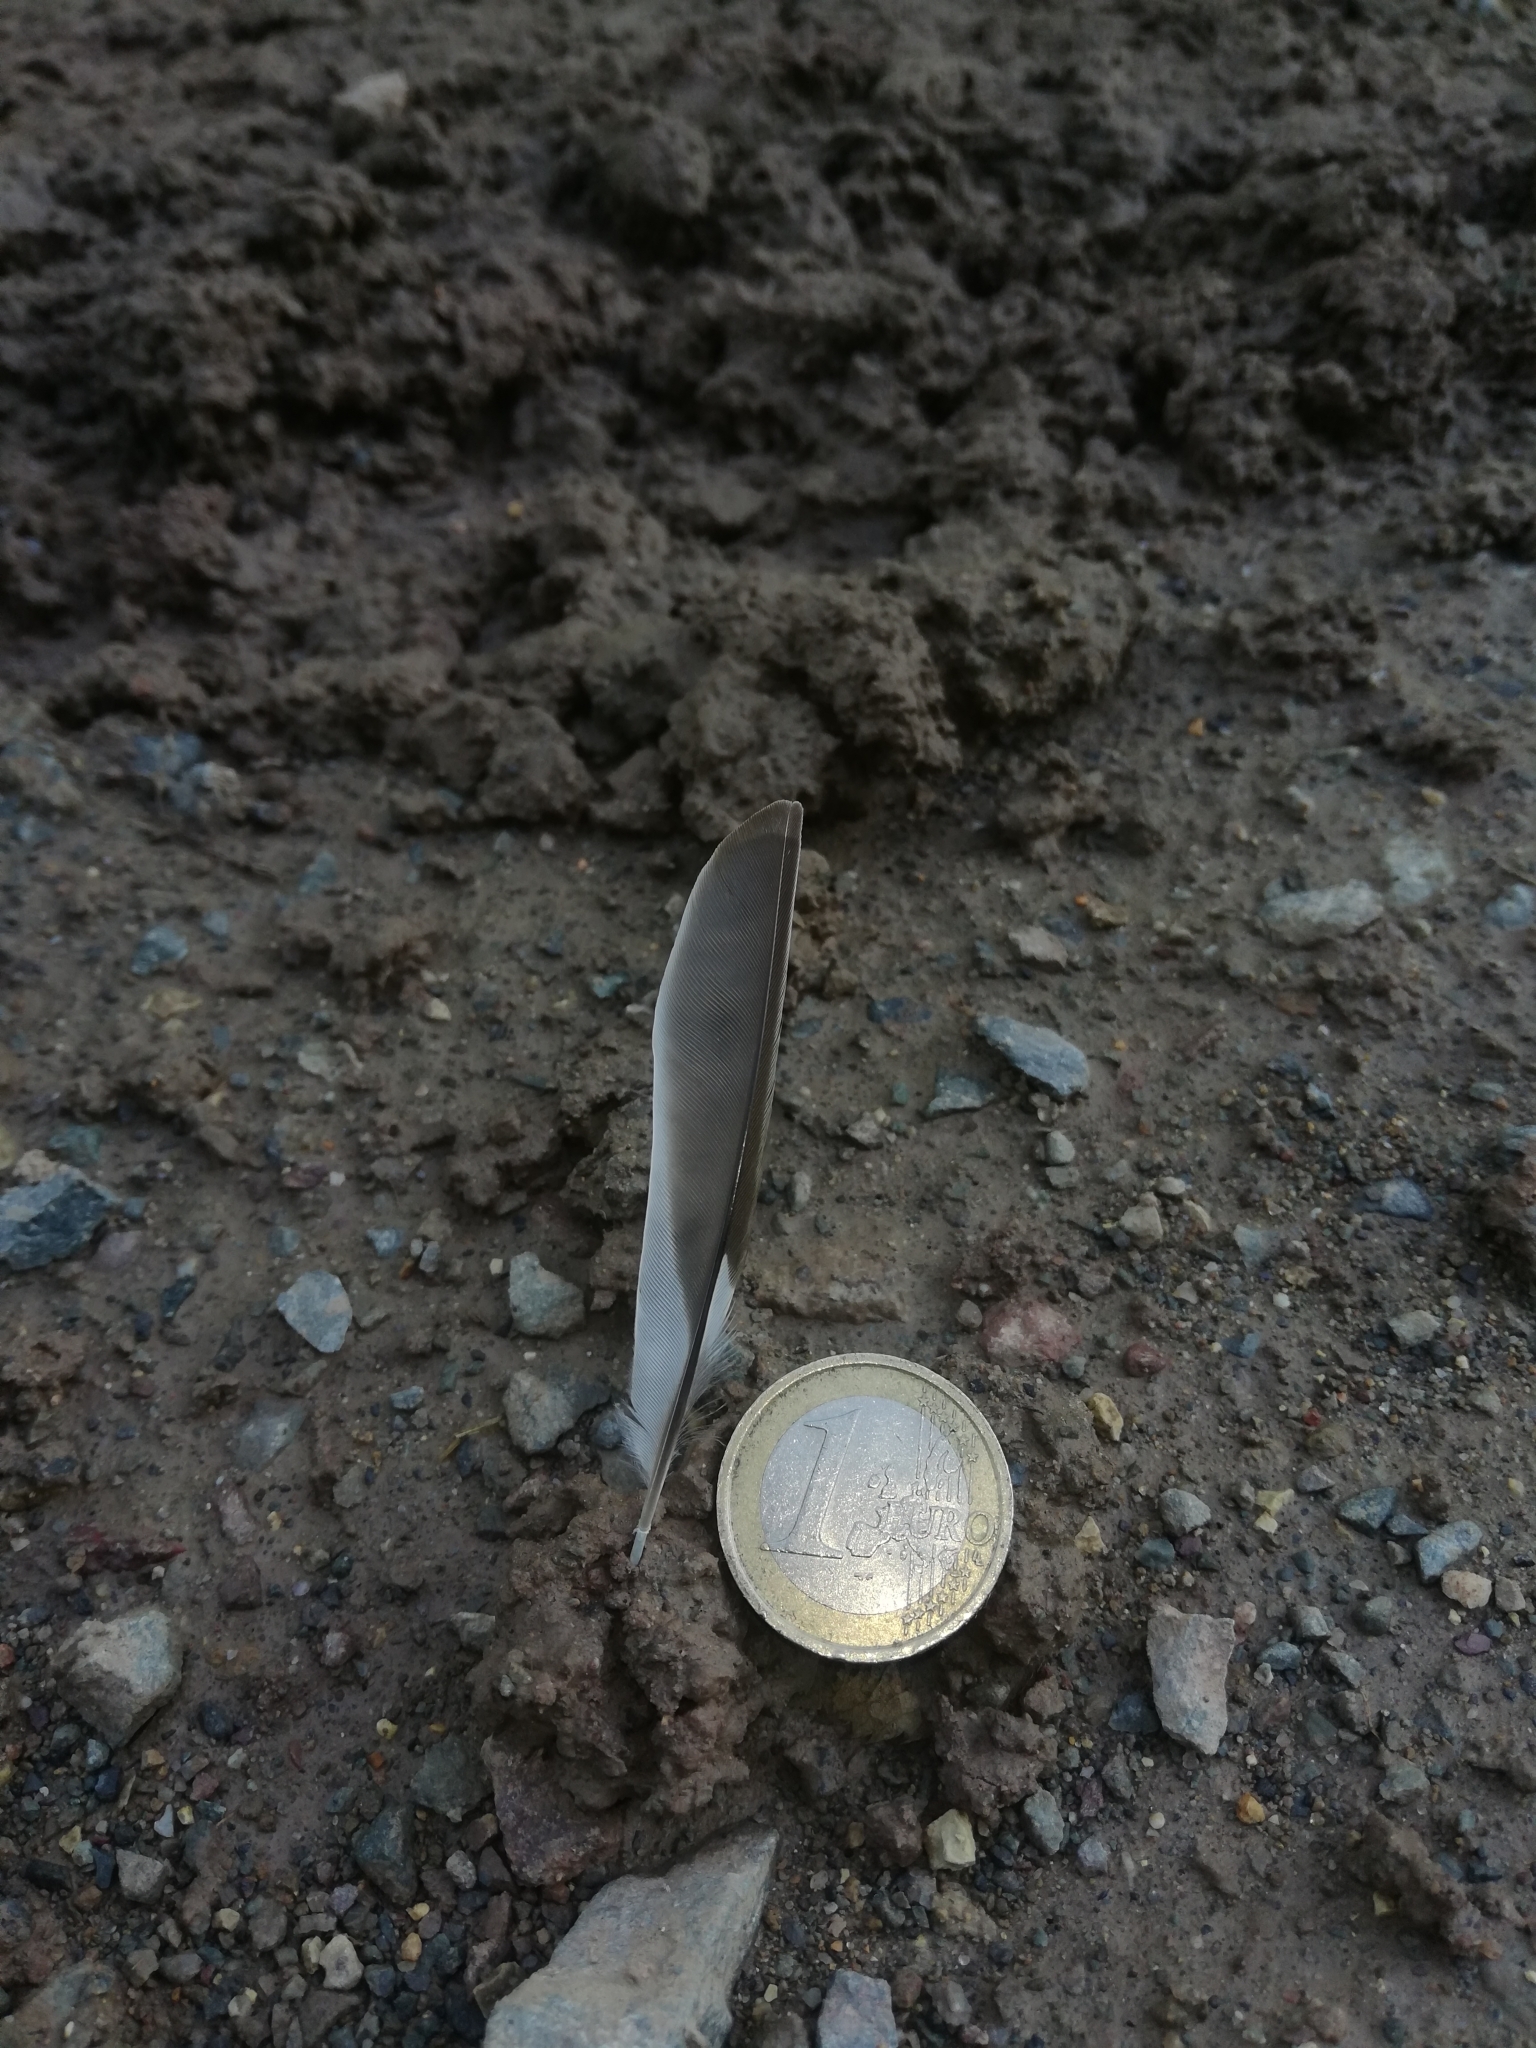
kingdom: Animalia
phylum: Chordata
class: Aves
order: Passeriformes
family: Fringillidae
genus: Fringilla
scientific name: Fringilla coelebs
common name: Common chaffinch
